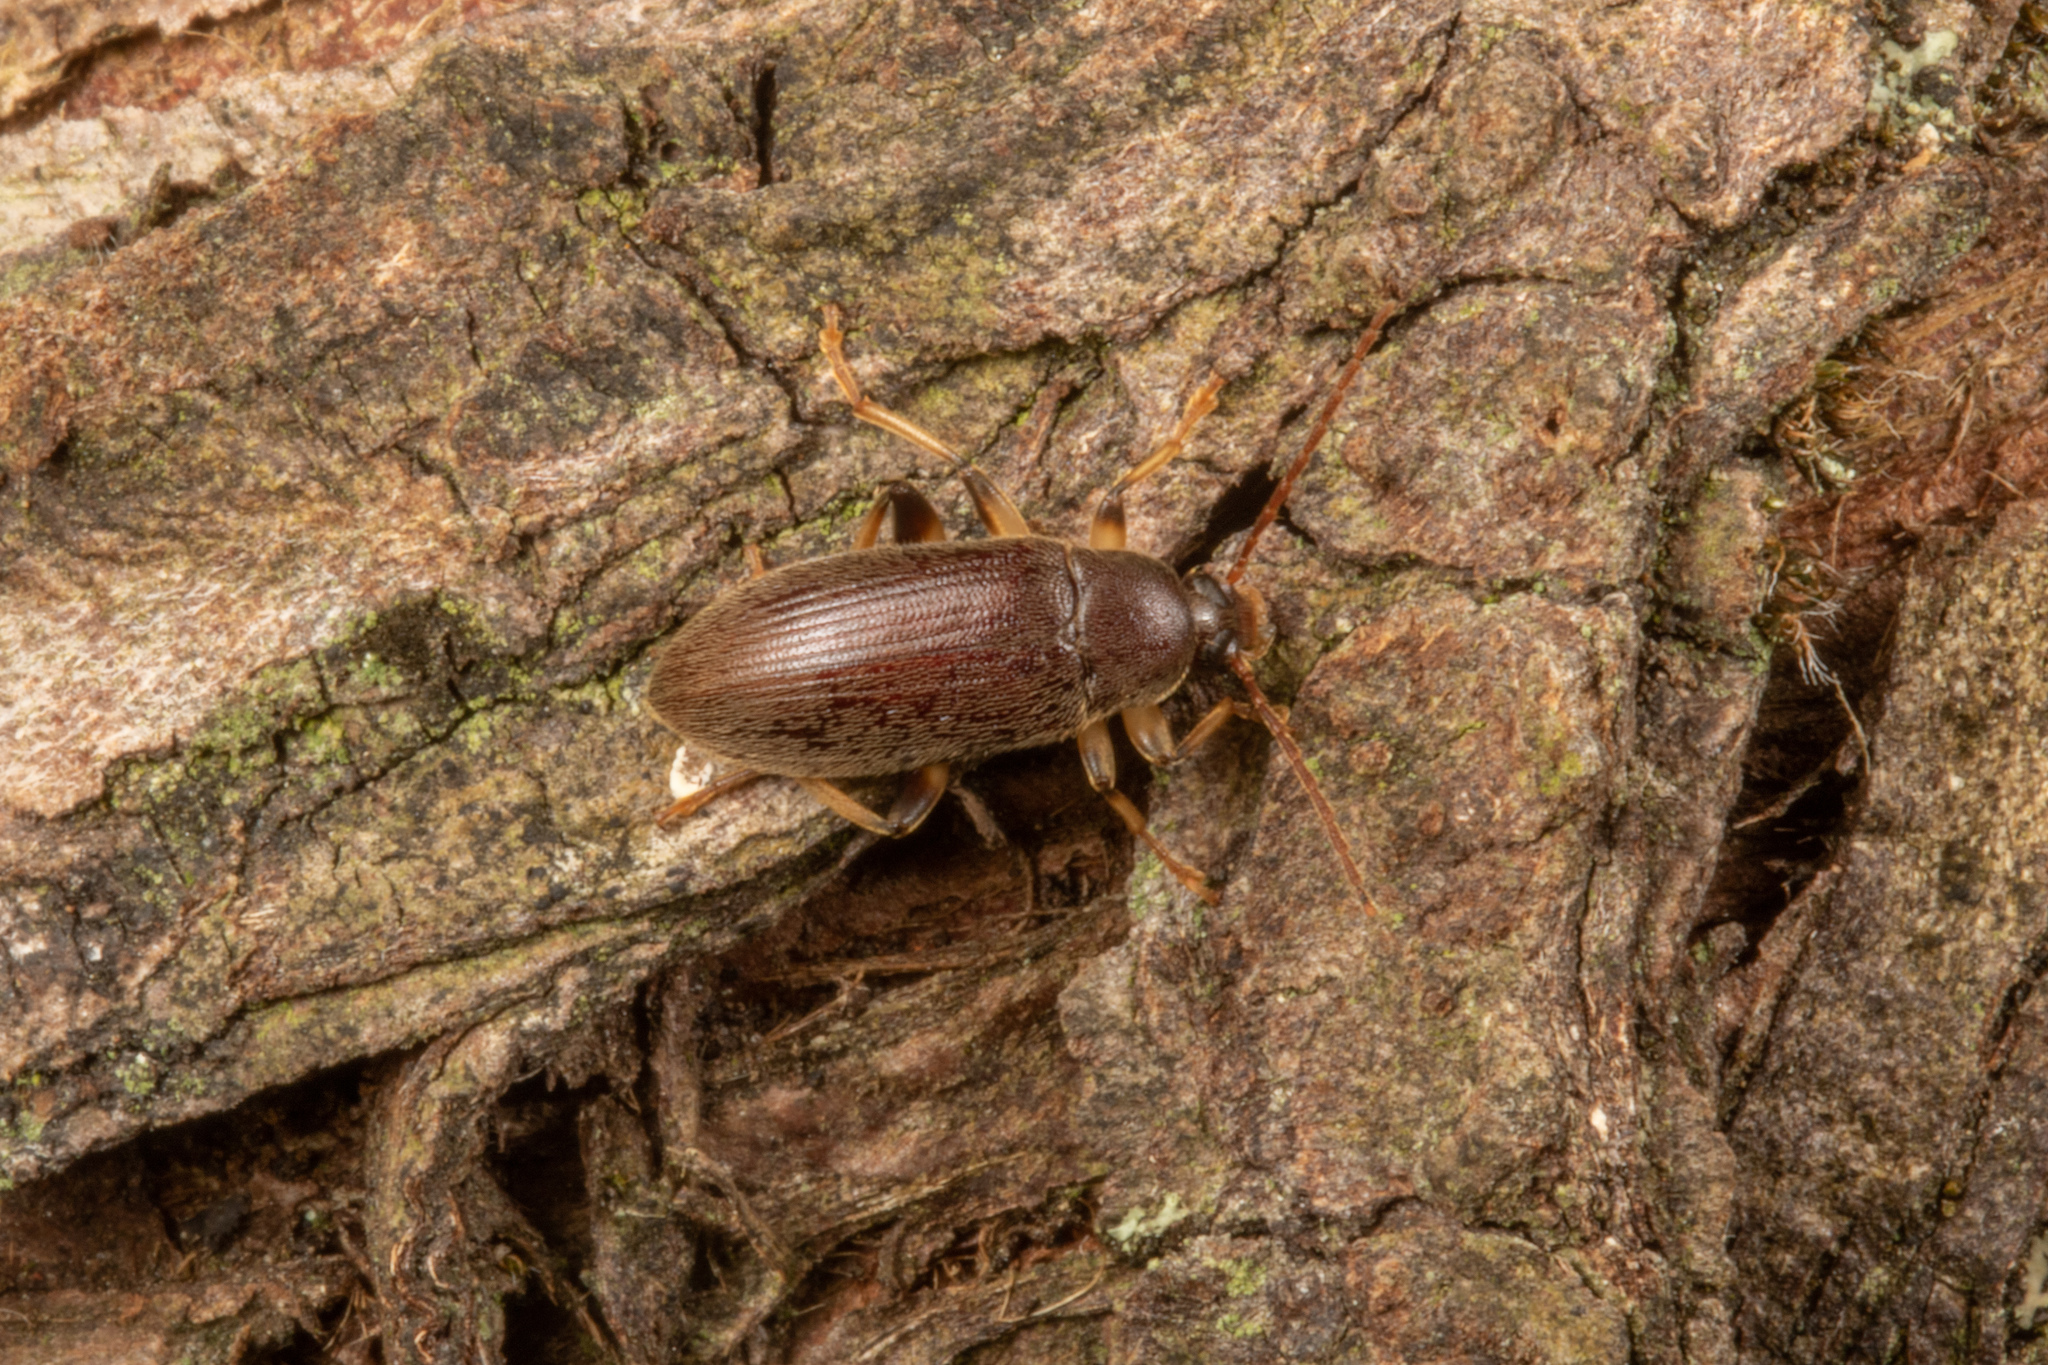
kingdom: Animalia
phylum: Arthropoda
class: Insecta
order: Coleoptera
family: Tenebrionidae
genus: Homotrysis
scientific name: Homotrysis
